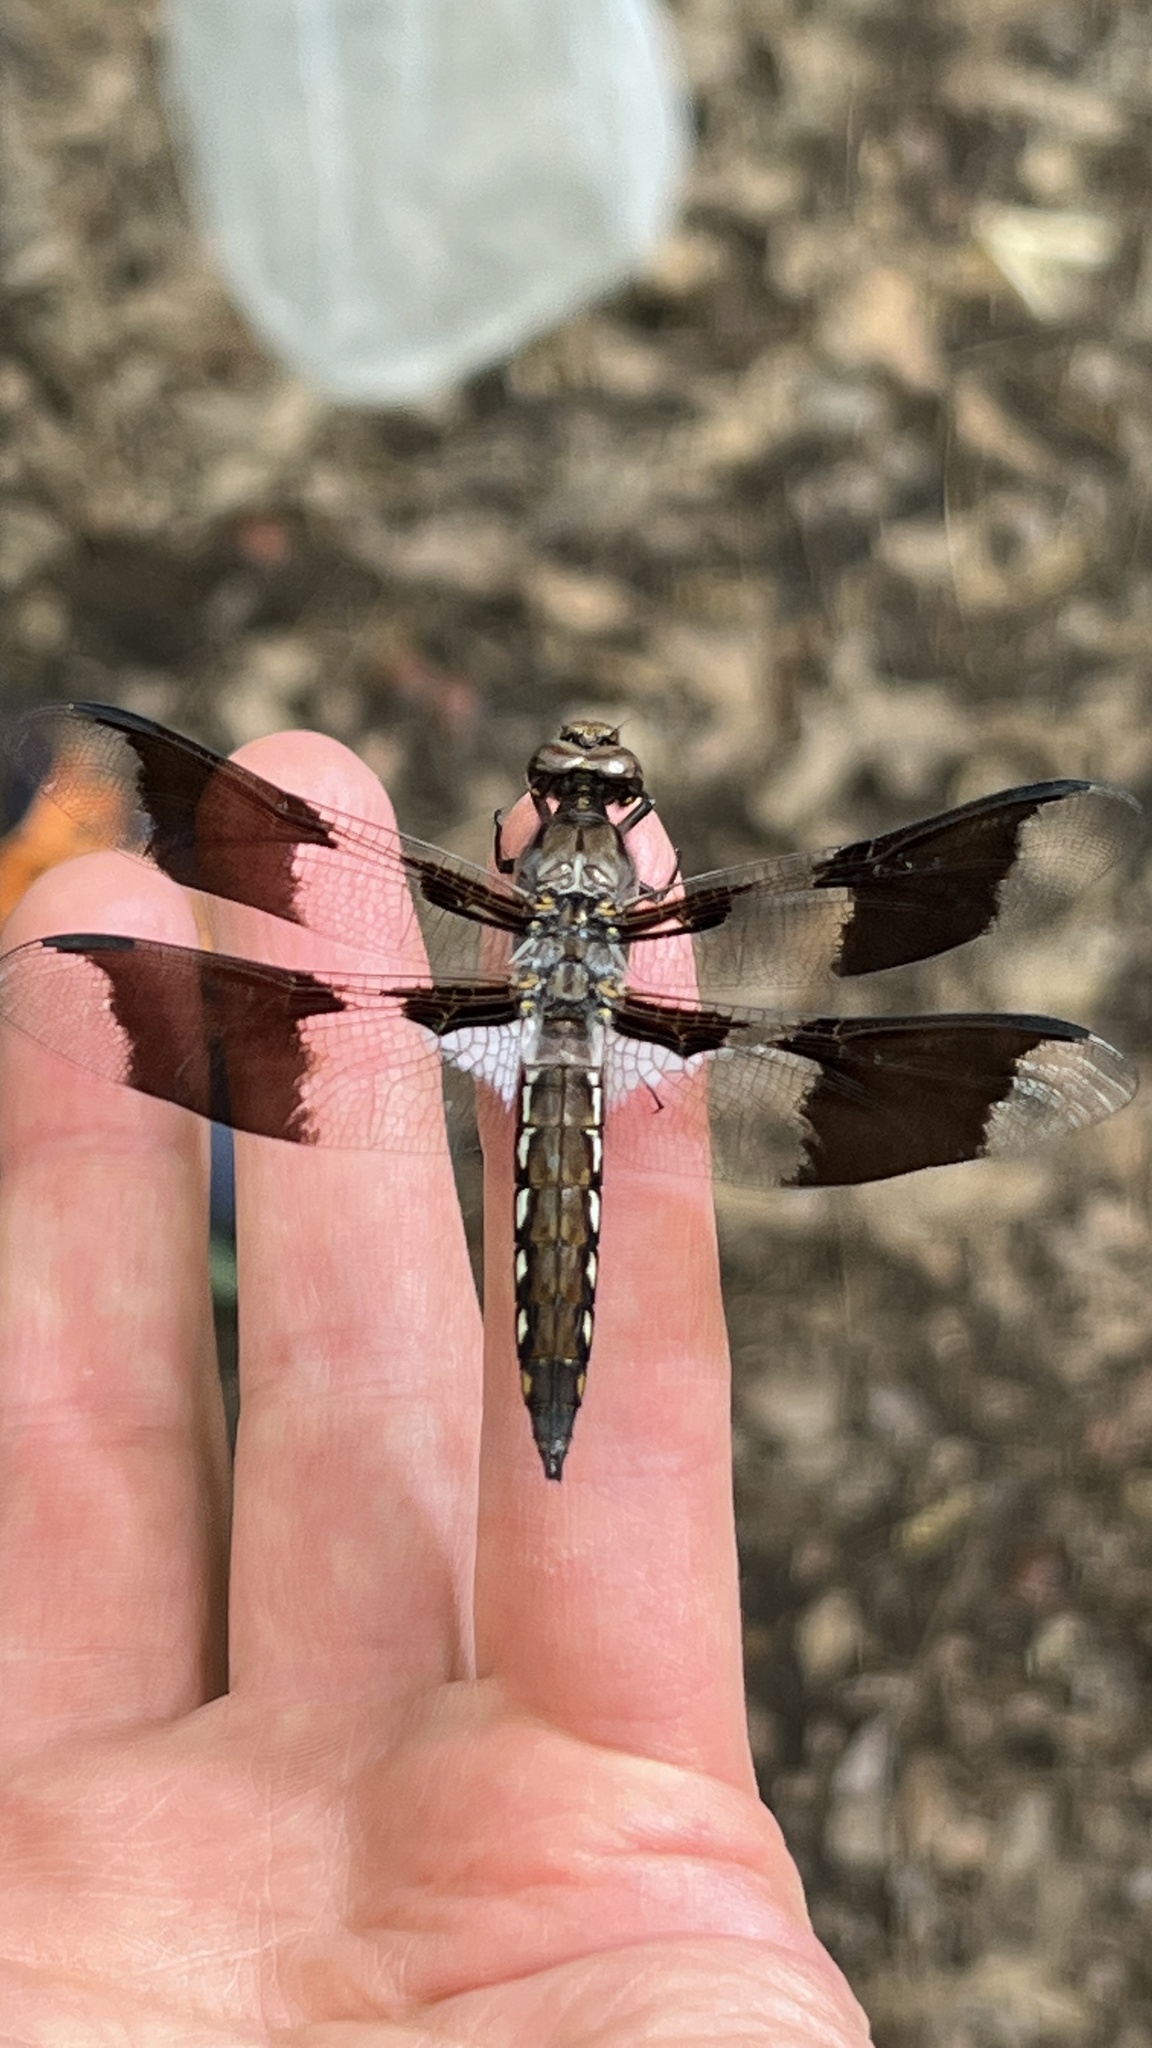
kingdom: Animalia
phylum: Arthropoda
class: Insecta
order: Odonata
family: Libellulidae
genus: Plathemis
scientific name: Plathemis lydia
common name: Common whitetail
